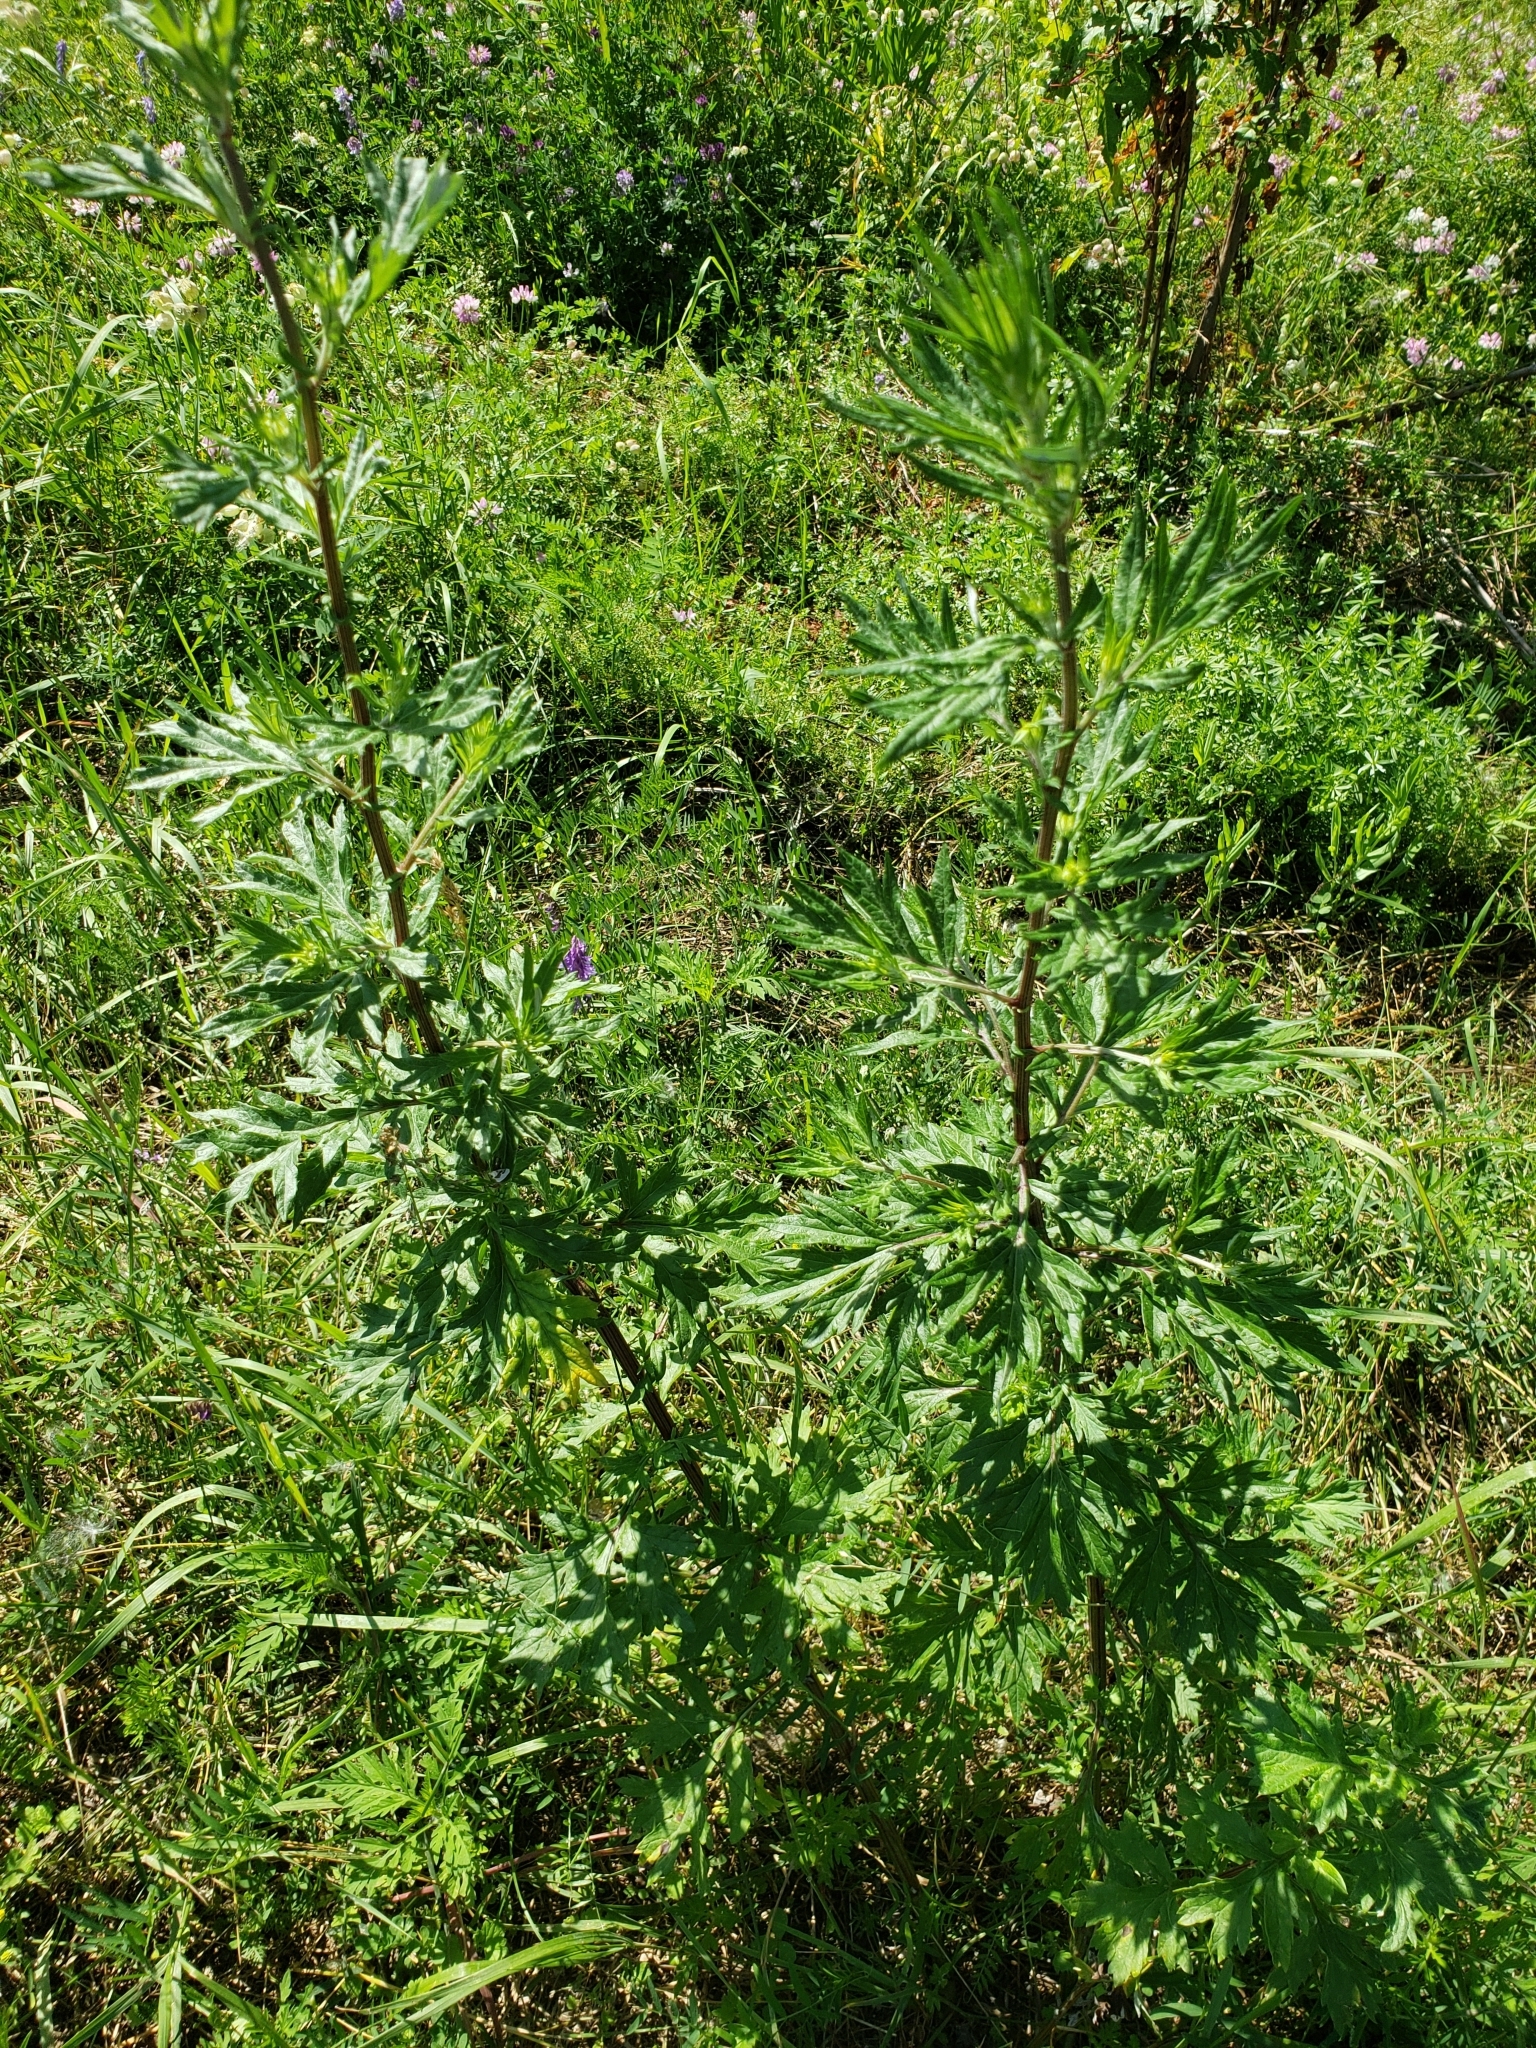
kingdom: Plantae
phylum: Tracheophyta
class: Magnoliopsida
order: Asterales
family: Asteraceae
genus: Artemisia
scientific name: Artemisia vulgaris
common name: Mugwort
